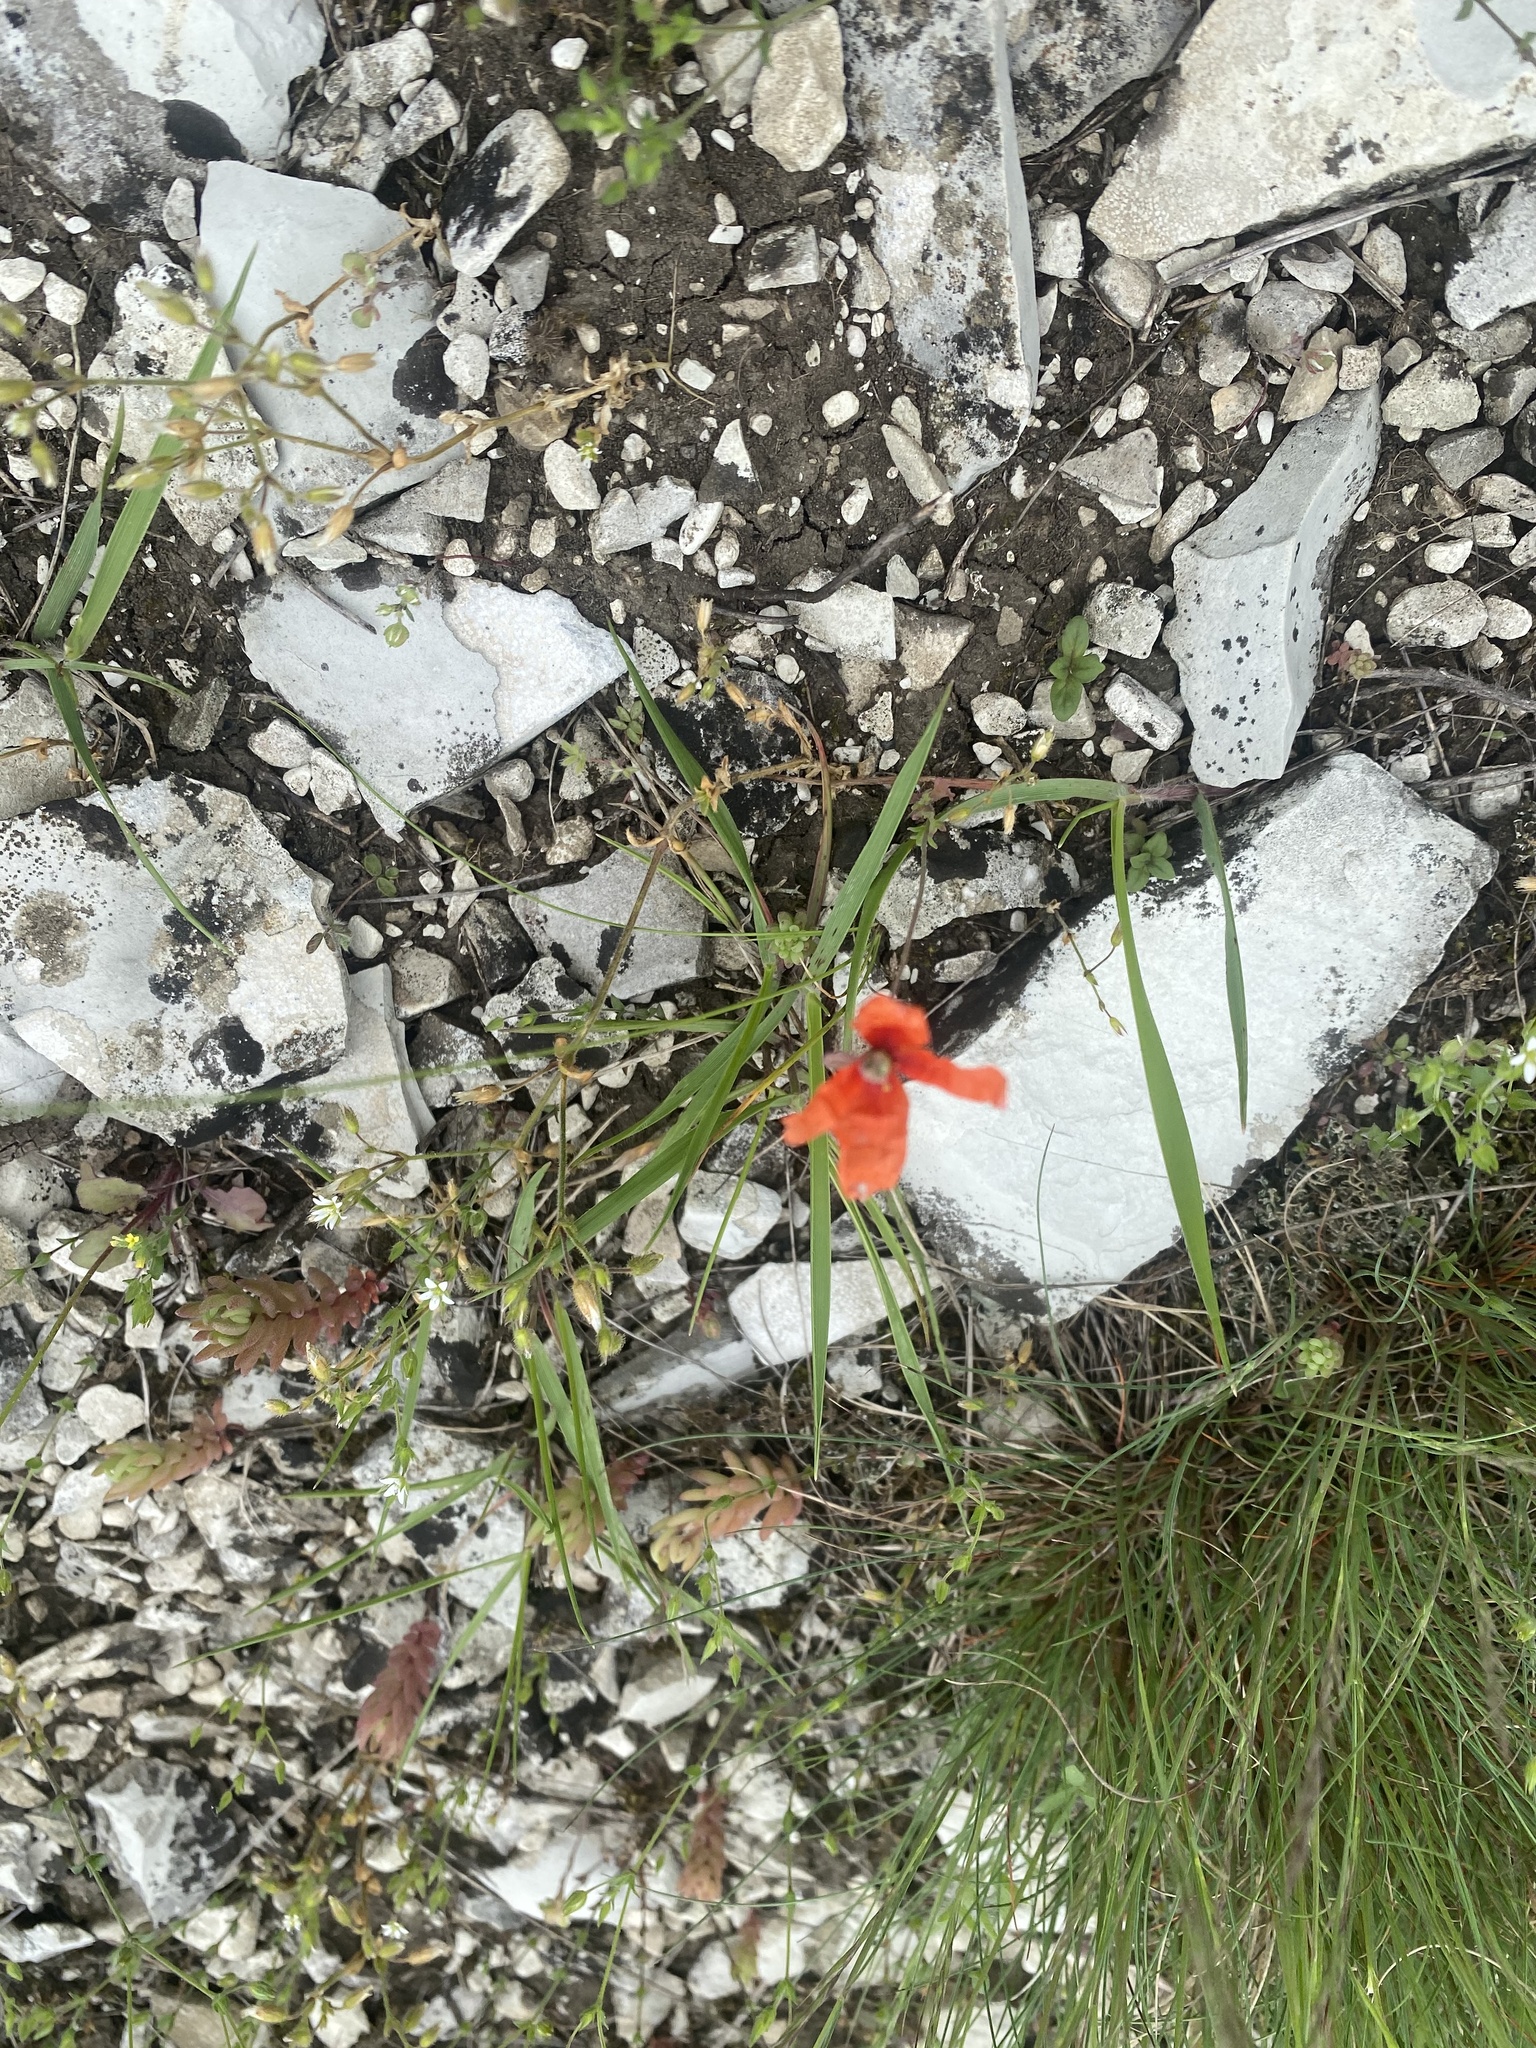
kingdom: Plantae
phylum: Tracheophyta
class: Magnoliopsida
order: Ranunculales
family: Papaveraceae
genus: Papaver
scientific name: Papaver dubium
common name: Long-headed poppy
